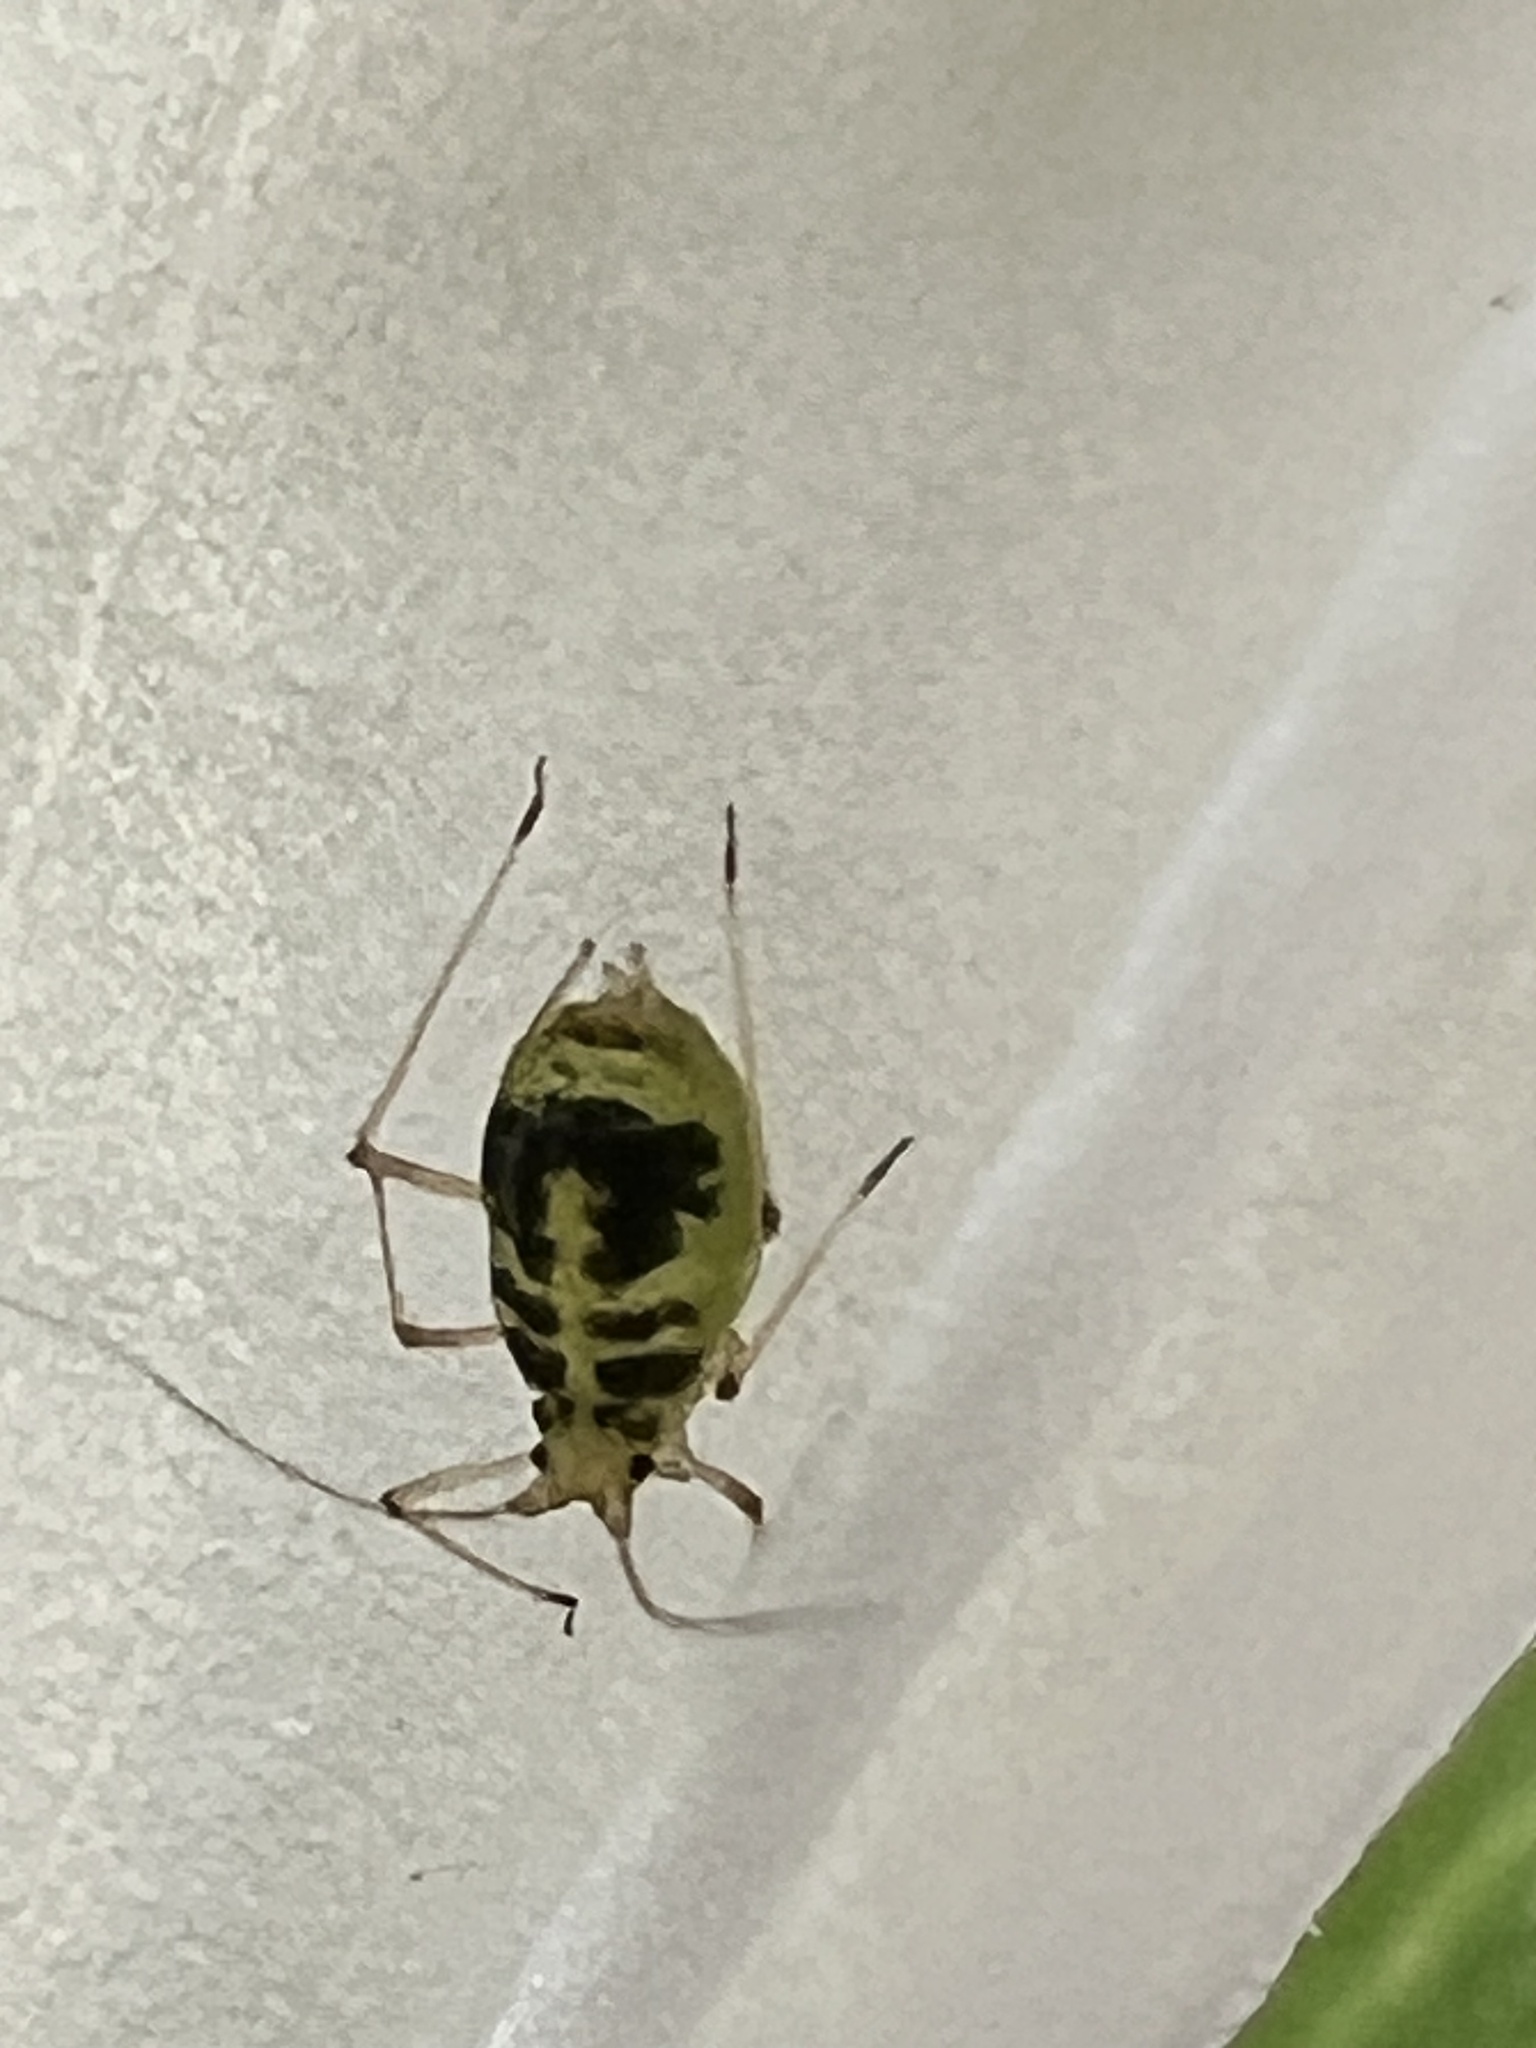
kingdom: Animalia
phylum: Arthropoda
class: Insecta
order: Hemiptera
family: Aphididae
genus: Neomyzus
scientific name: Neomyzus circumflexus
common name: Crescentmarked lily aphid
